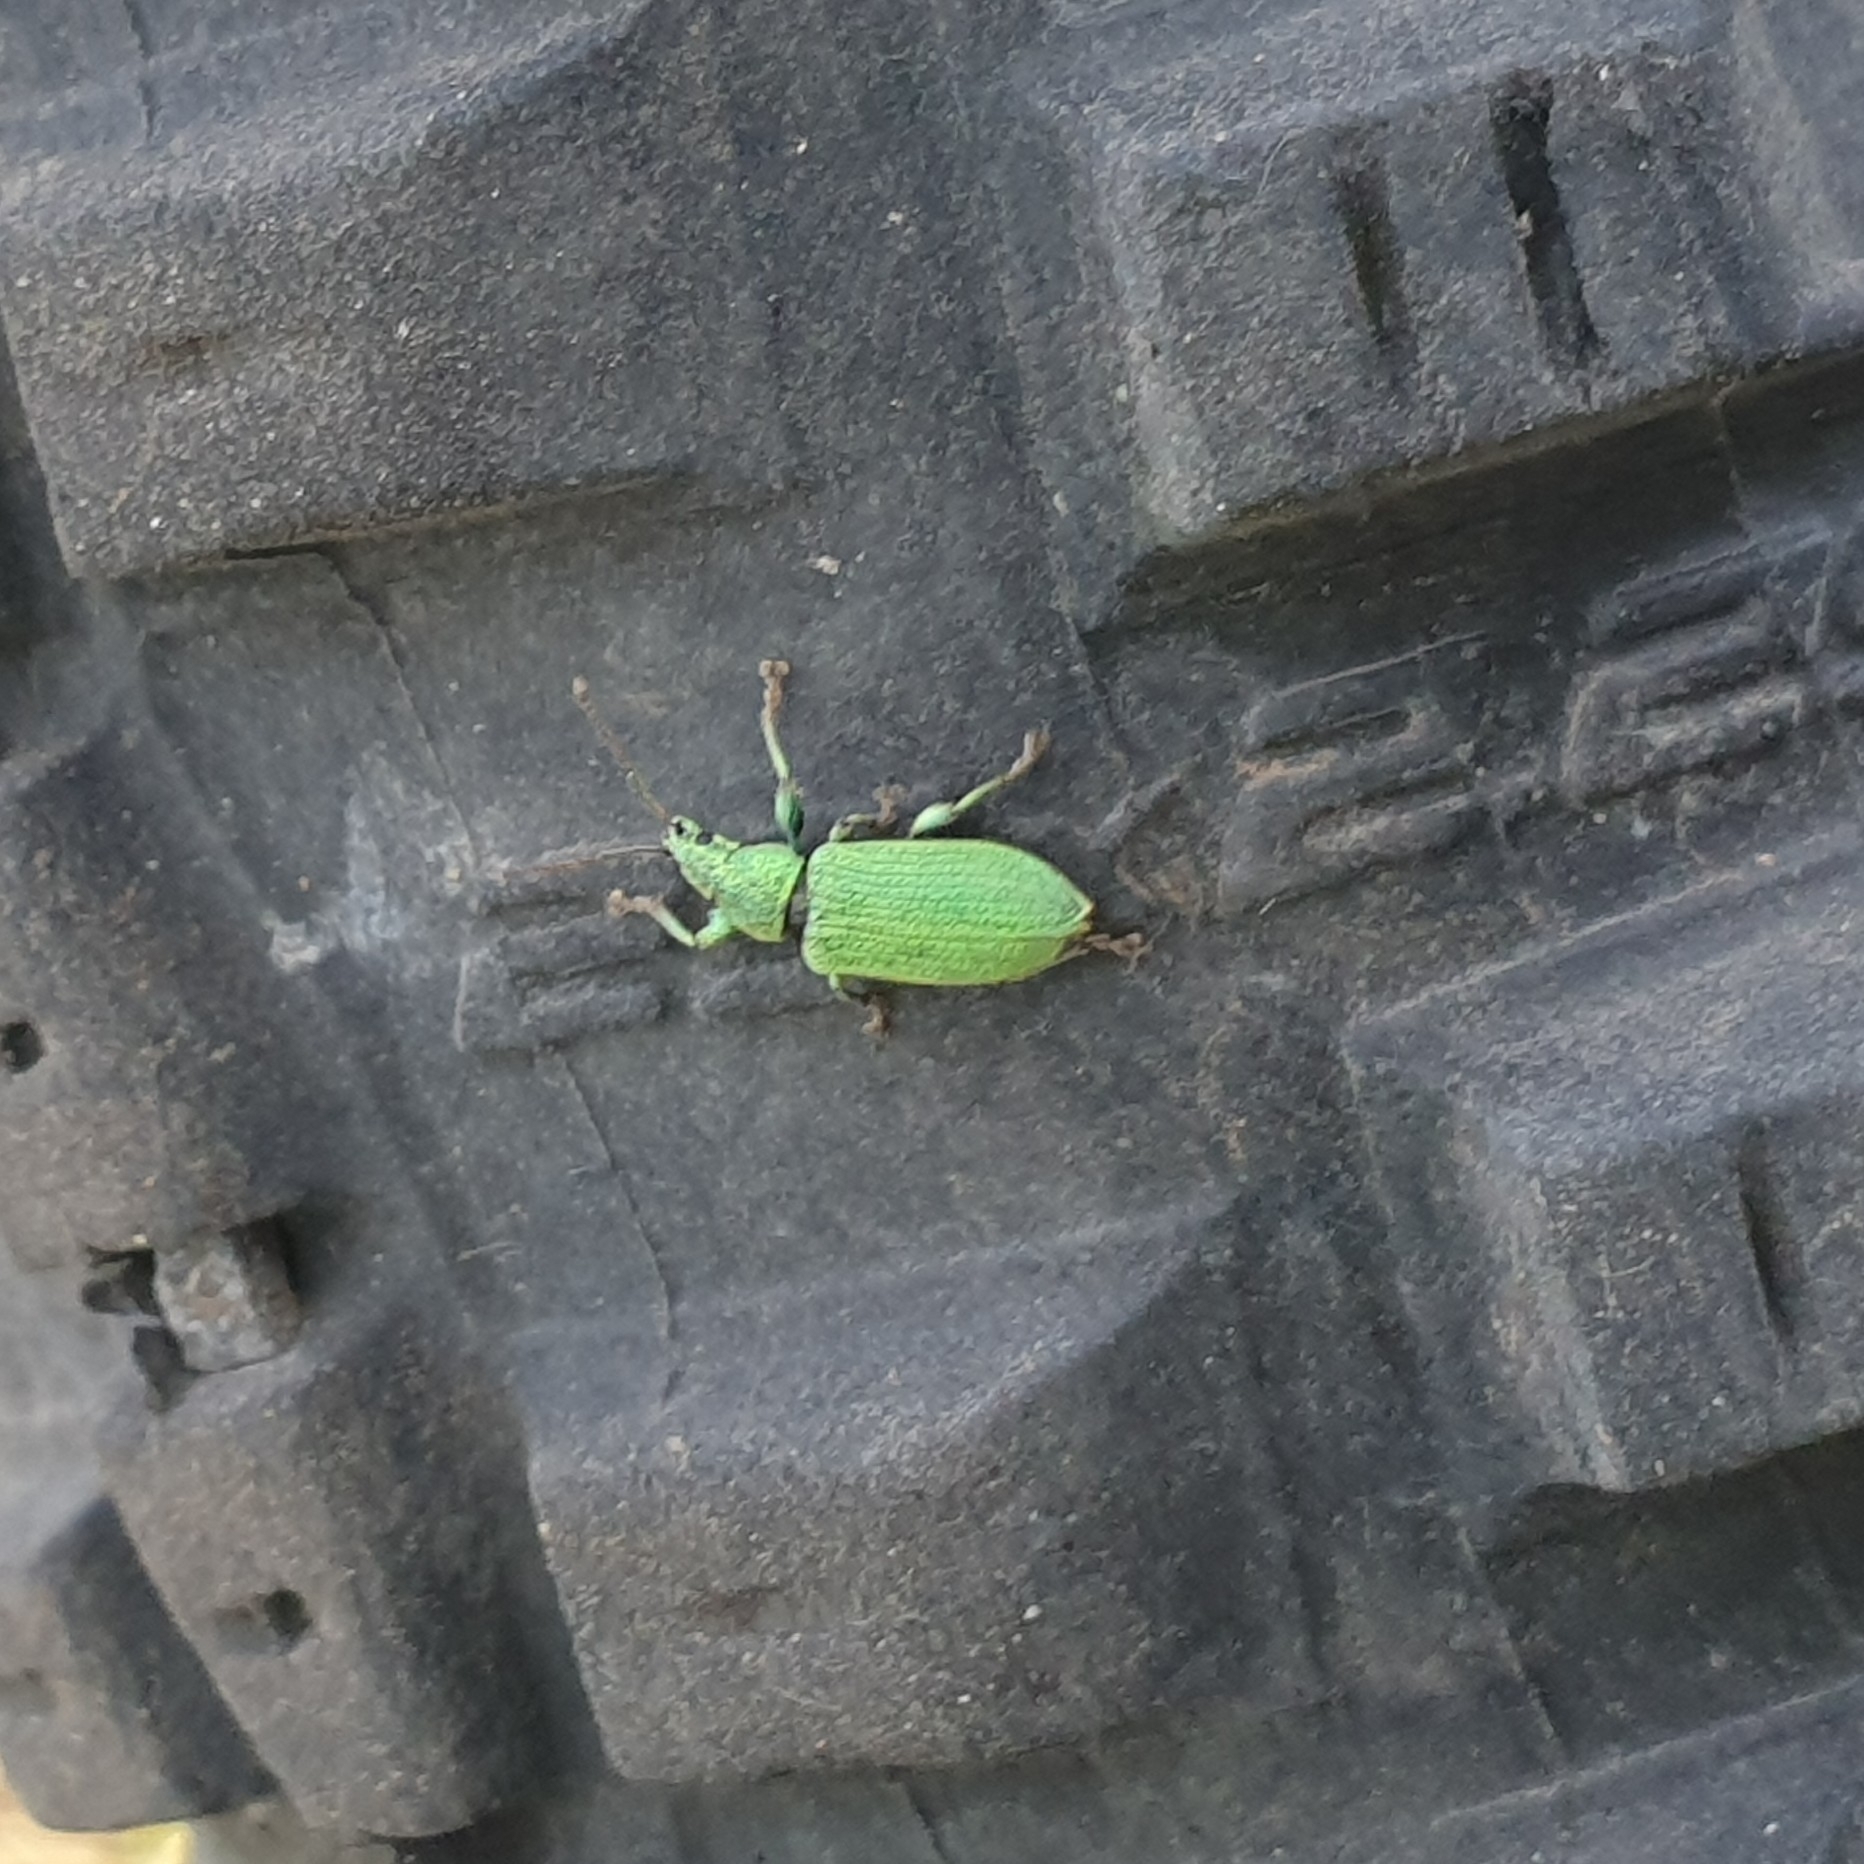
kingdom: Animalia
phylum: Arthropoda
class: Insecta
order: Coleoptera
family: Curculionidae
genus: Phyllobius
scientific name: Phyllobius maculicornis
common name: Green leaf weevil
